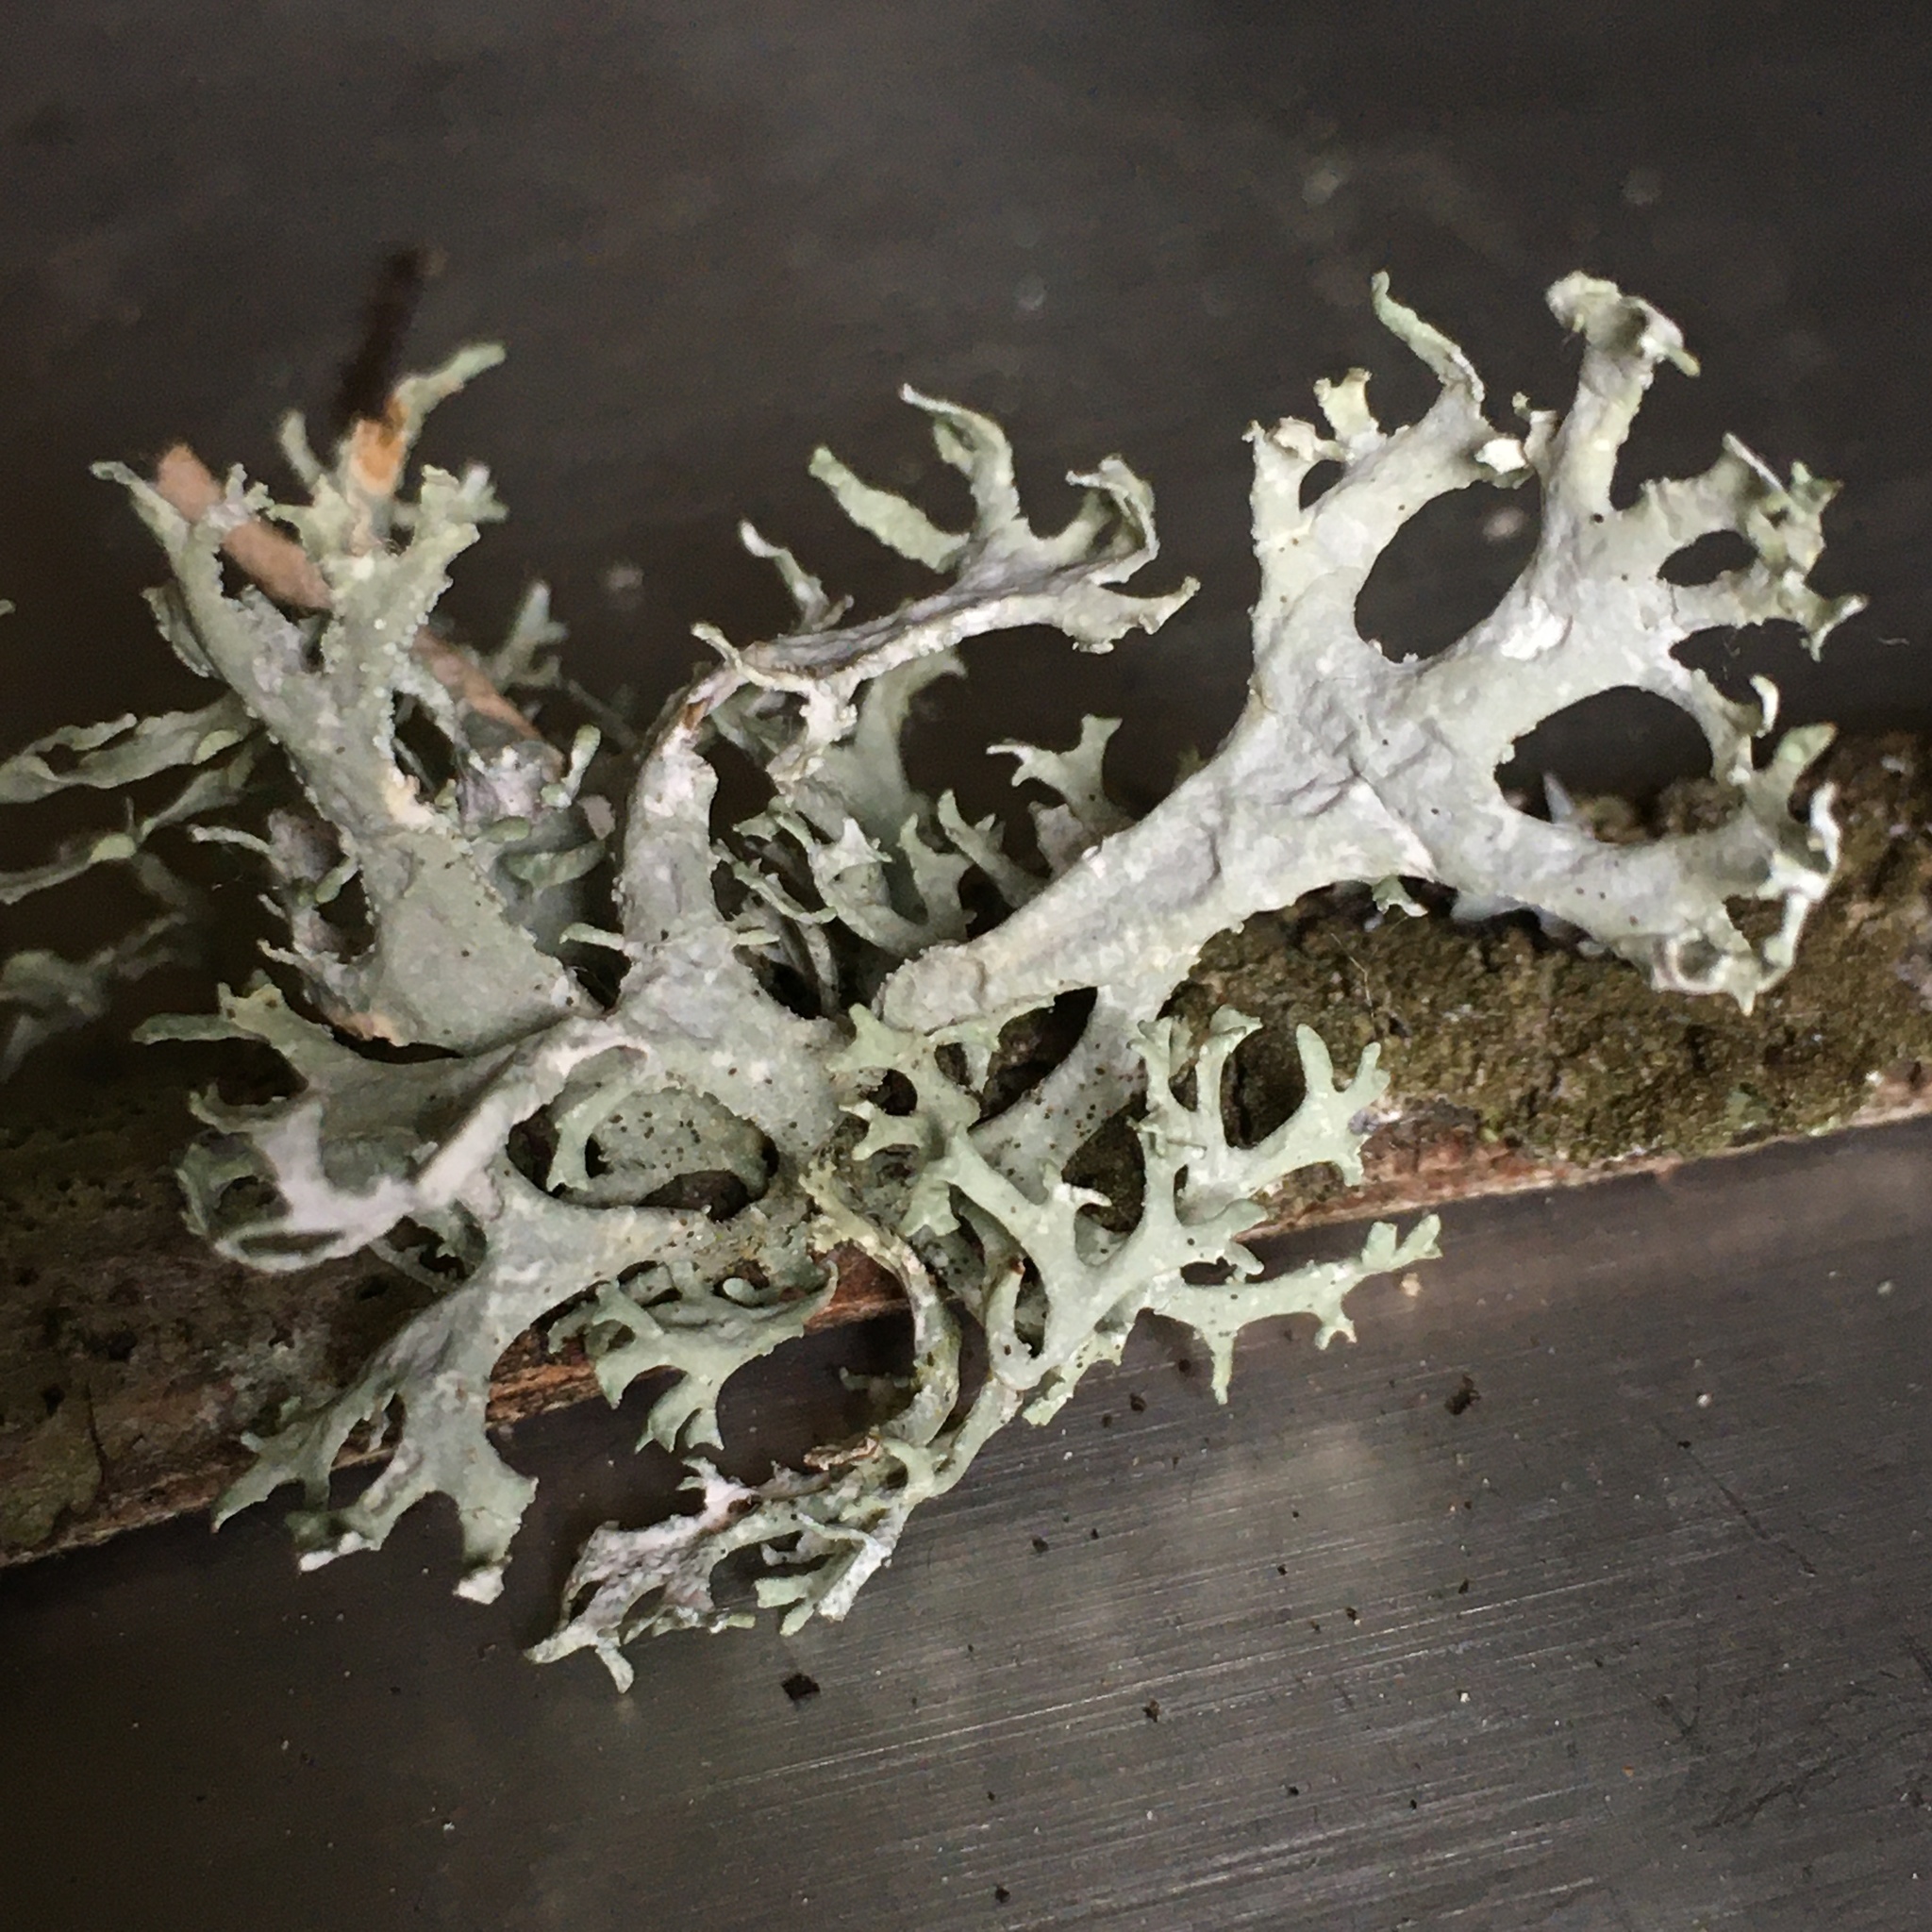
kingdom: Fungi
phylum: Ascomycota
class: Lecanoromycetes
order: Lecanorales
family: Parmeliaceae
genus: Evernia
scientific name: Evernia prunastri
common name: Oak moss
